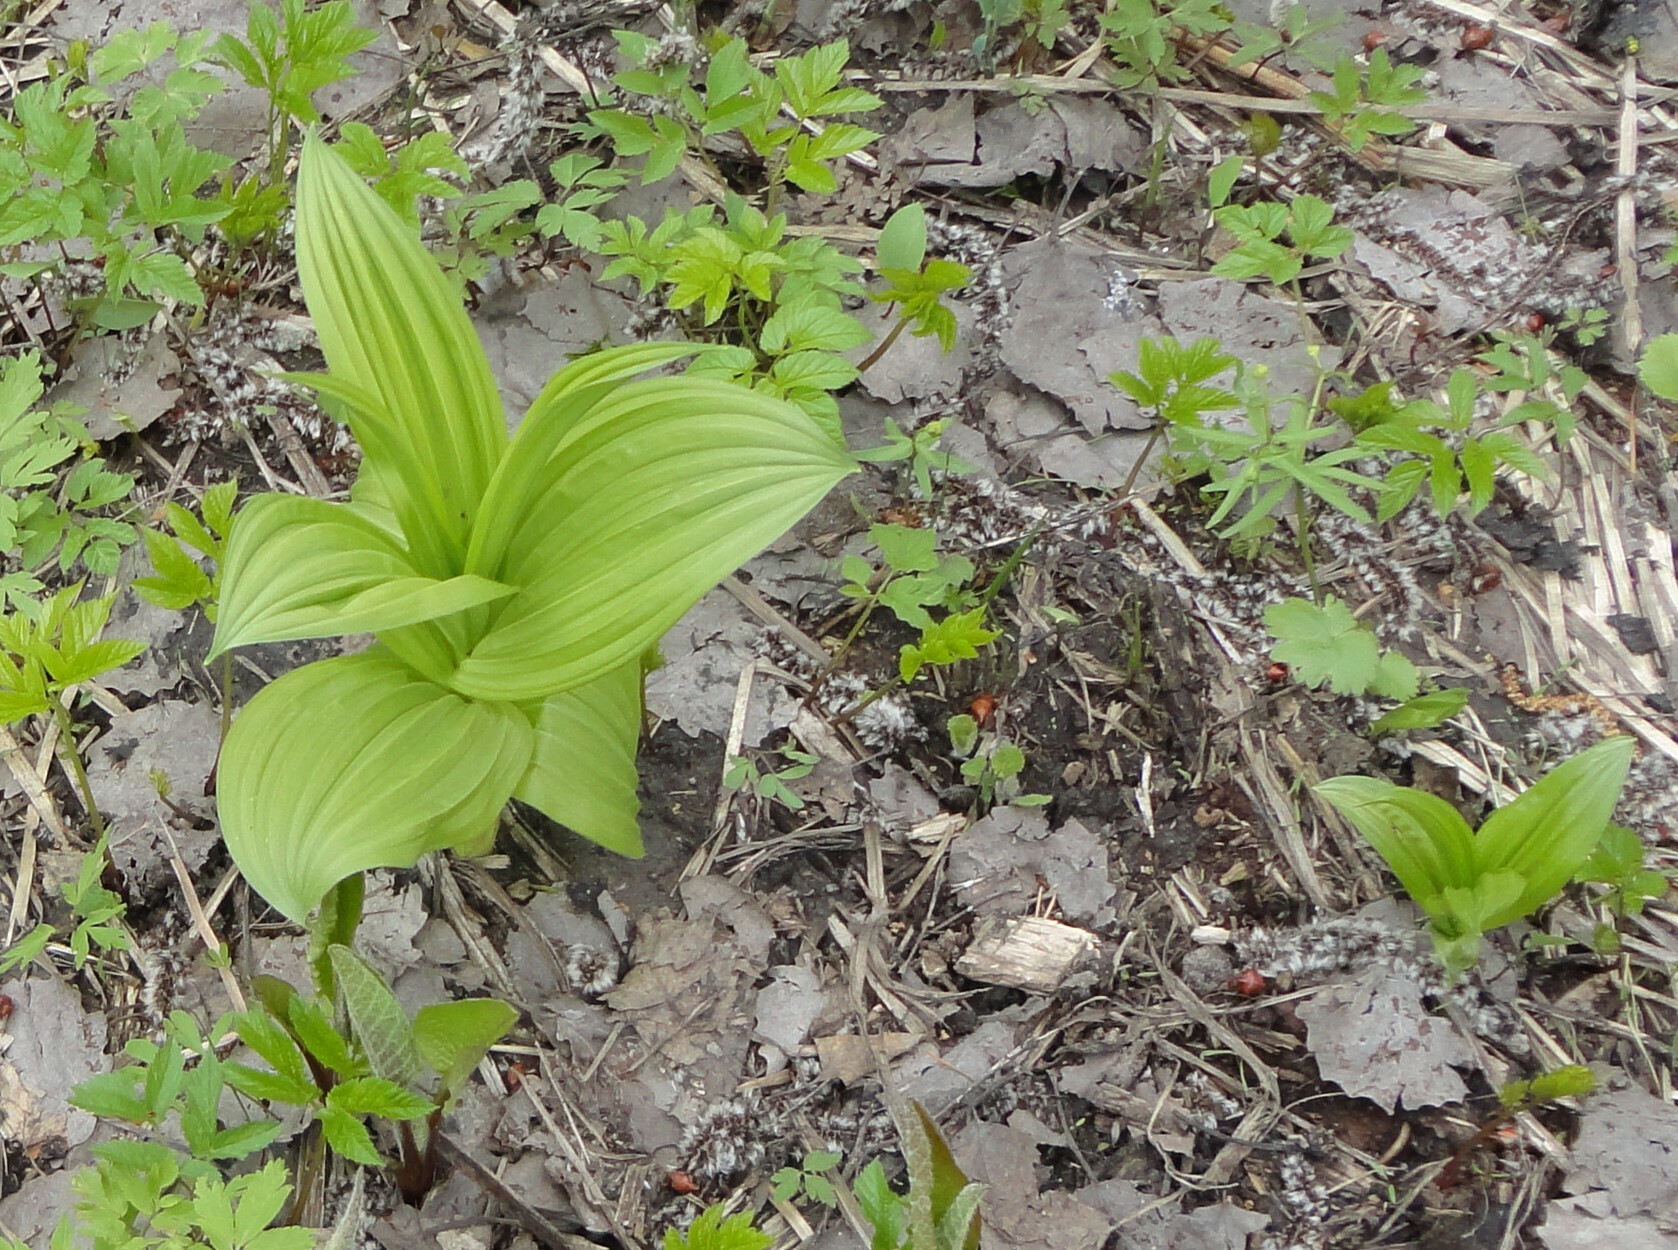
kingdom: Plantae
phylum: Tracheophyta
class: Liliopsida
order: Liliales
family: Melanthiaceae
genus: Veratrum
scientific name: Veratrum lobelianum
